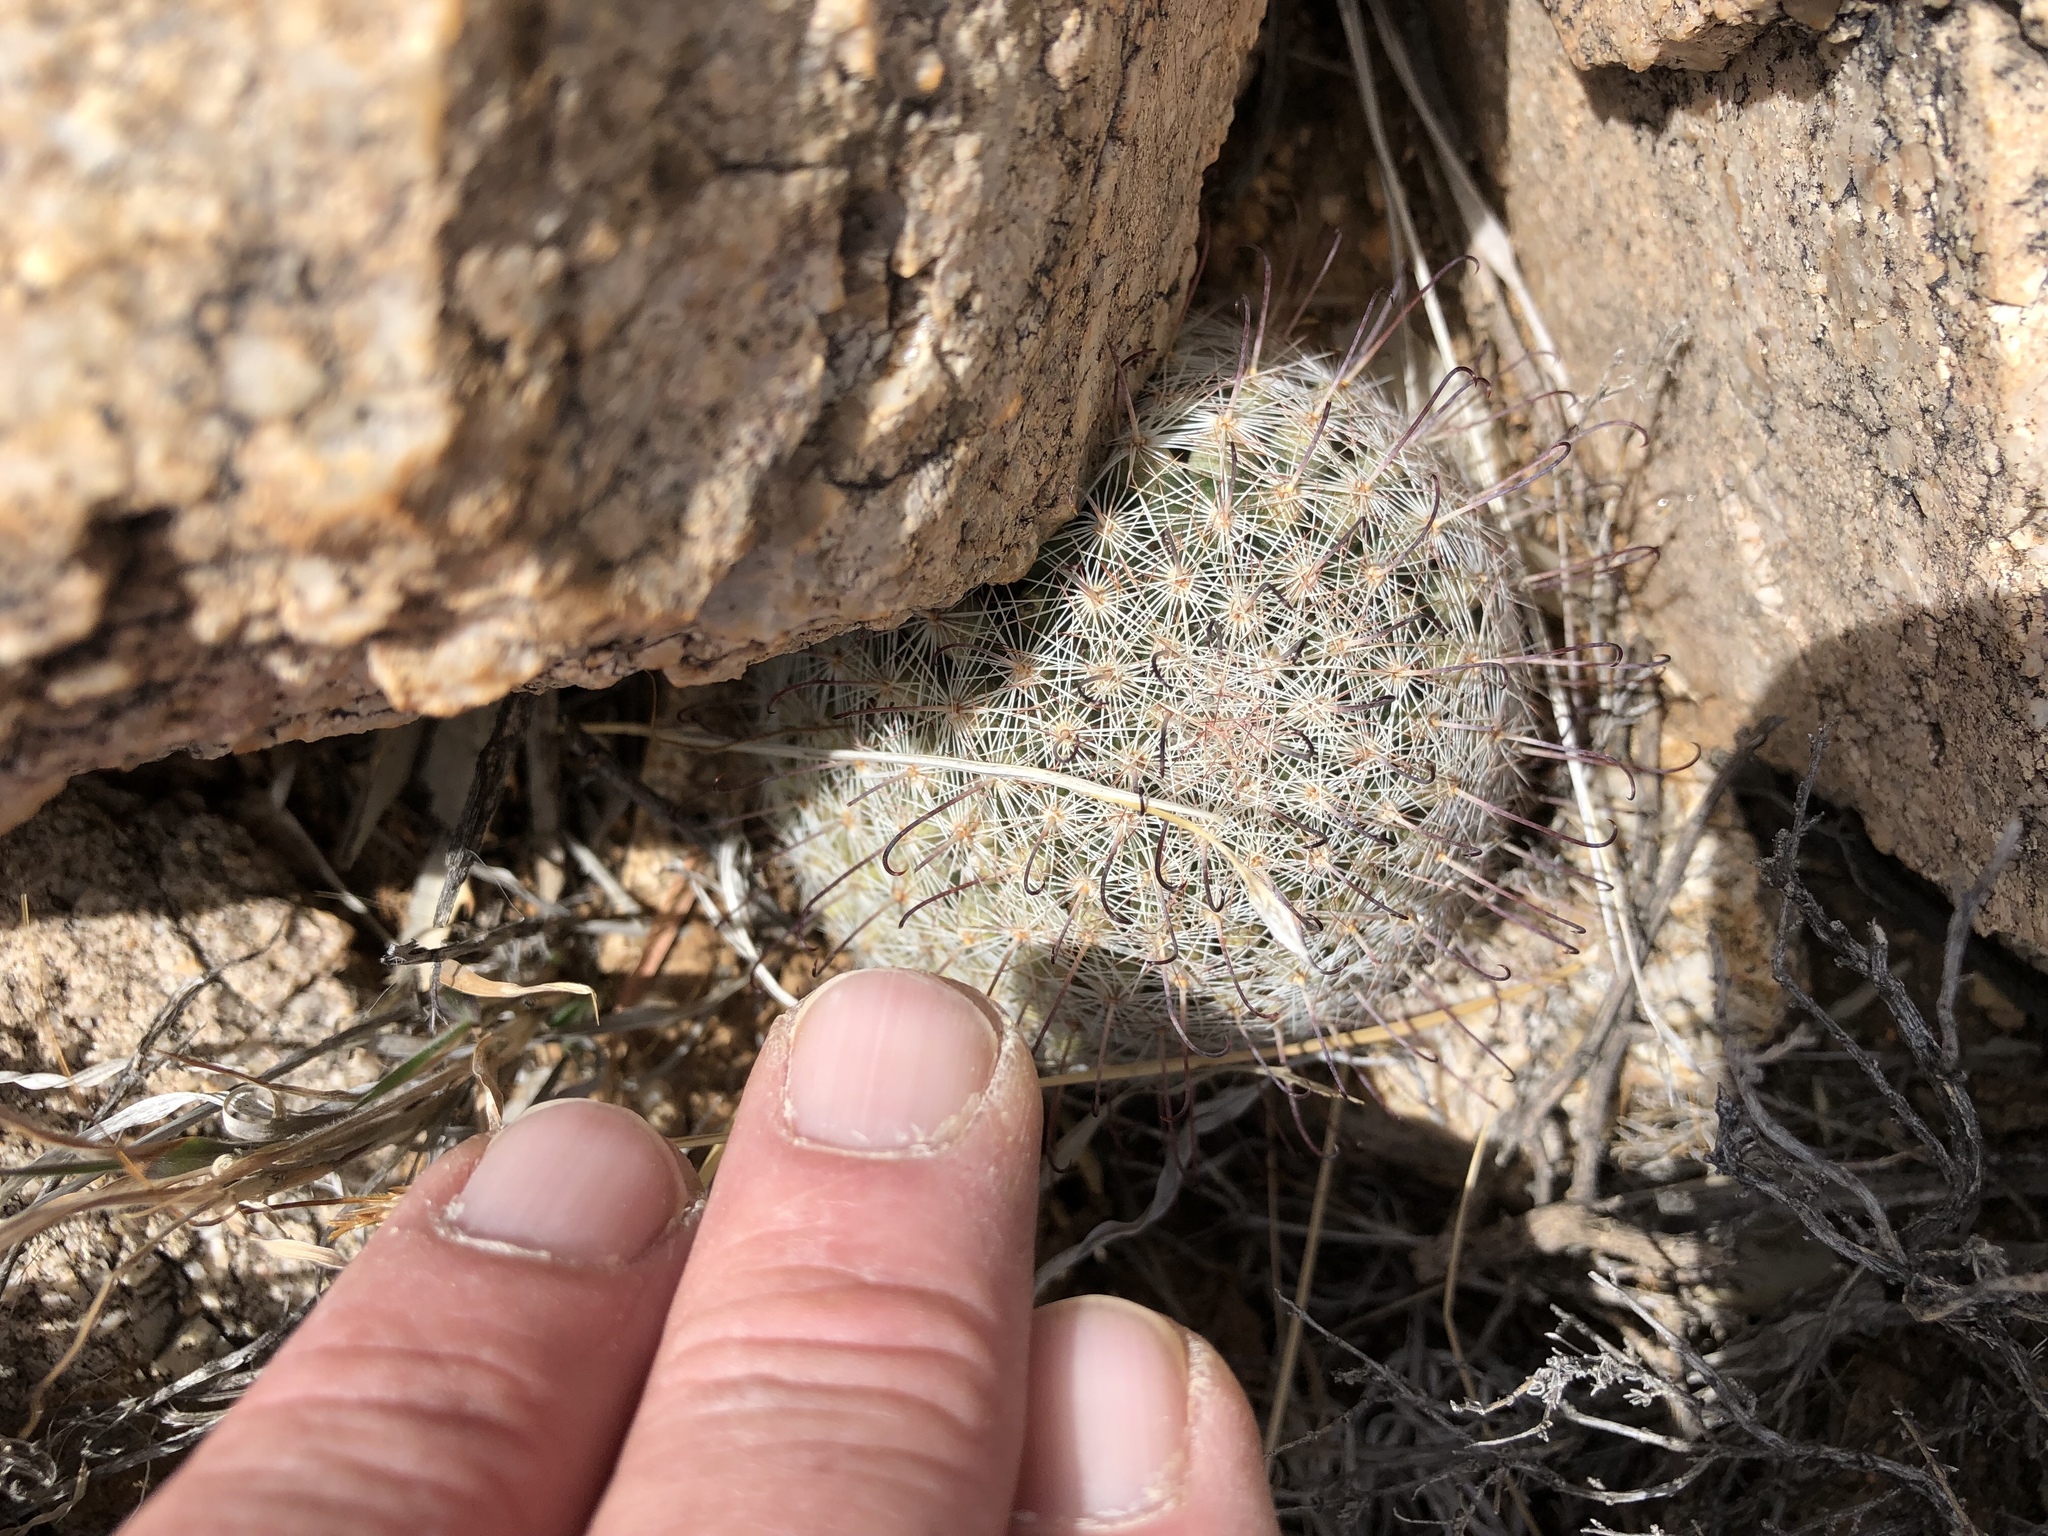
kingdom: Plantae
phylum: Tracheophyta
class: Magnoliopsida
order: Caryophyllales
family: Cactaceae
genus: Cochemiea
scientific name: Cochemiea grahamii
